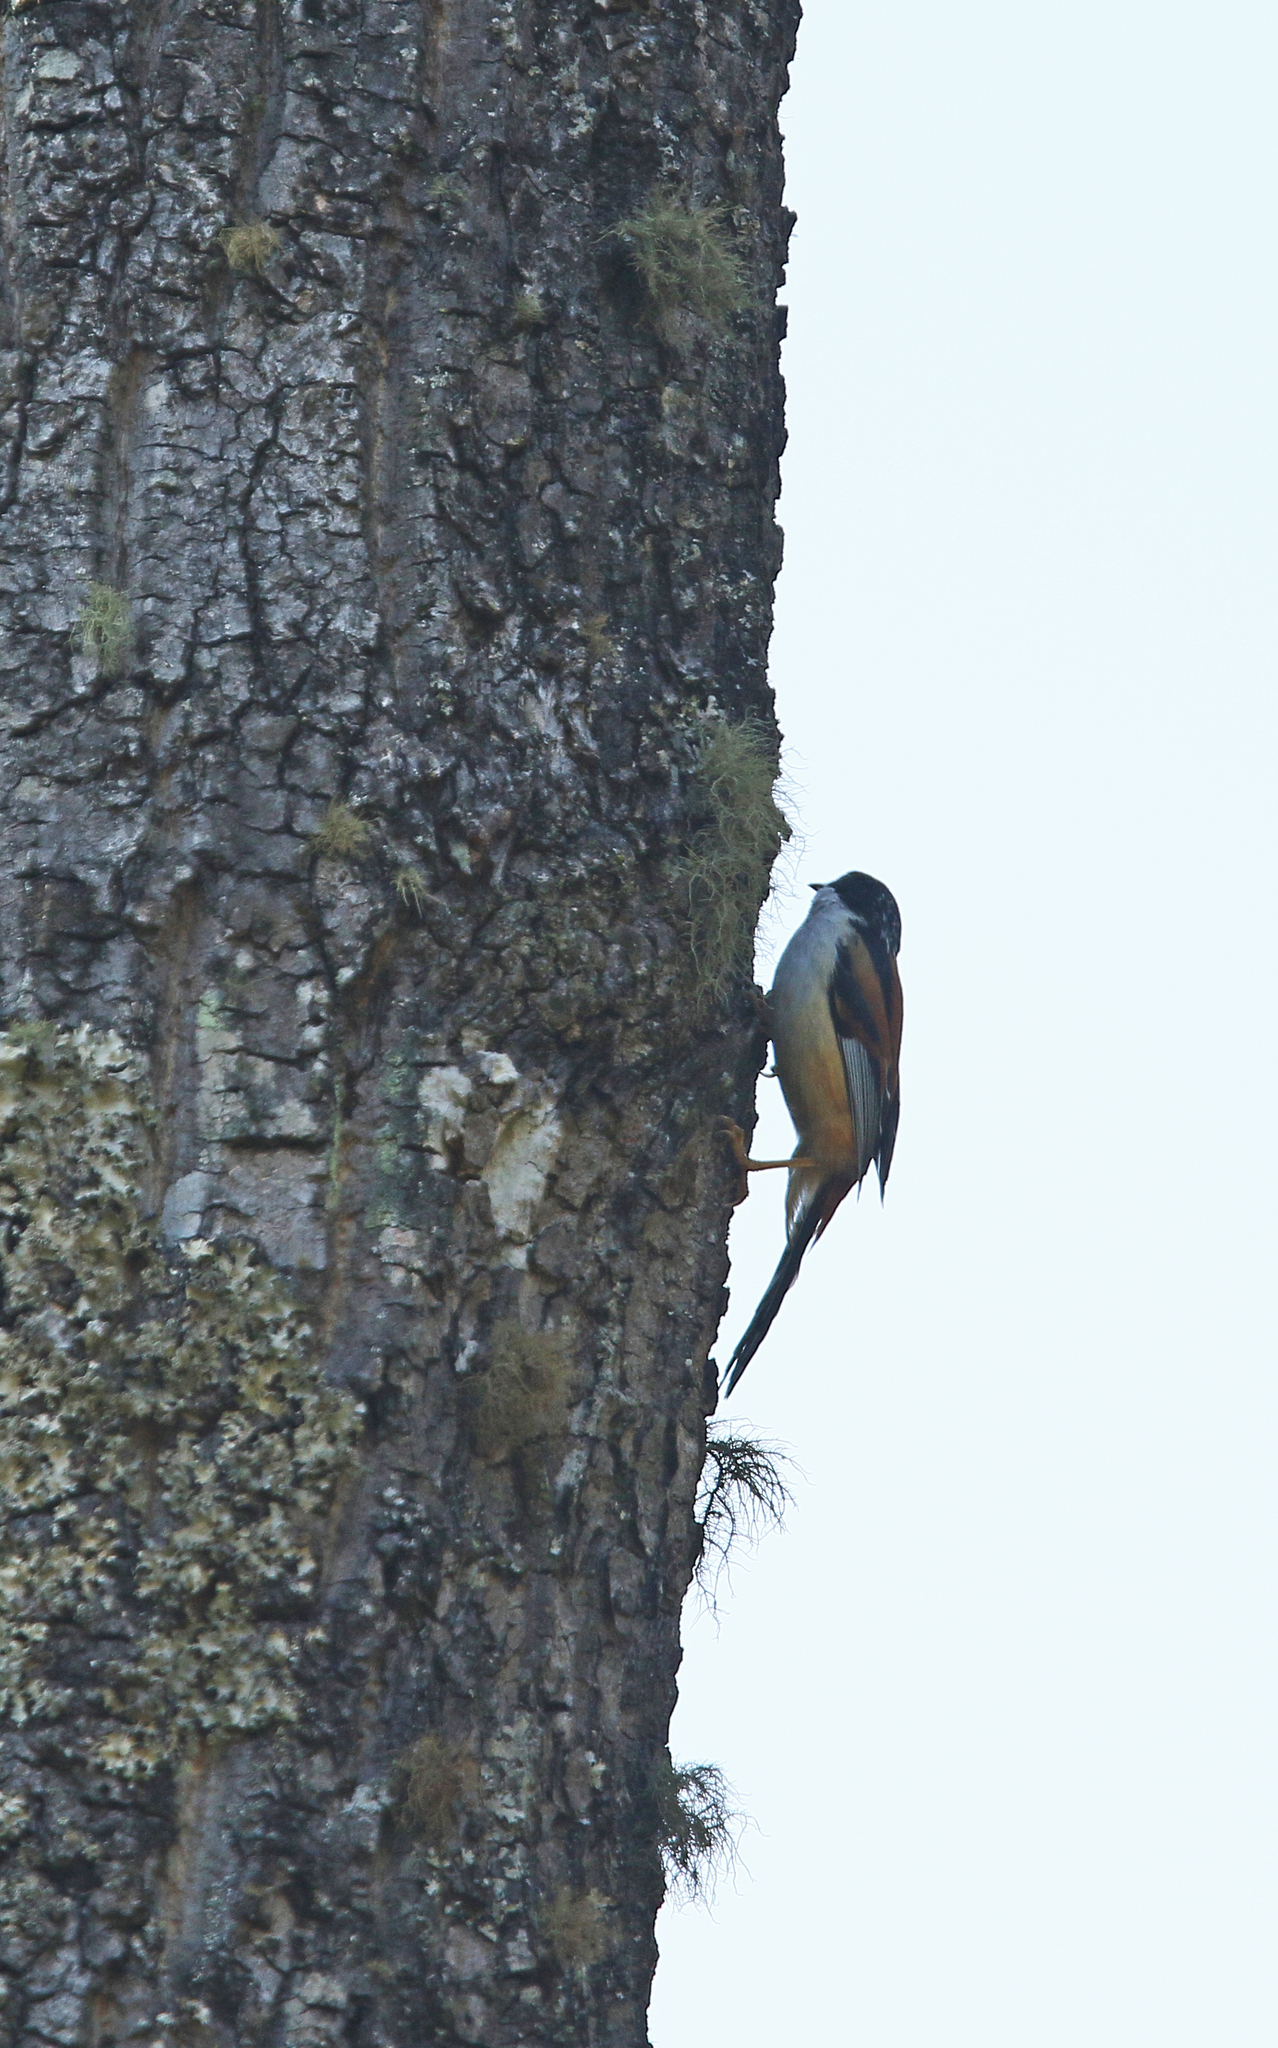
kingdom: Animalia
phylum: Chordata
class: Aves
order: Passeriformes
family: Leiothrichidae
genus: Heterophasia
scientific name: Heterophasia annectans
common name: Rufous-backed sibia
